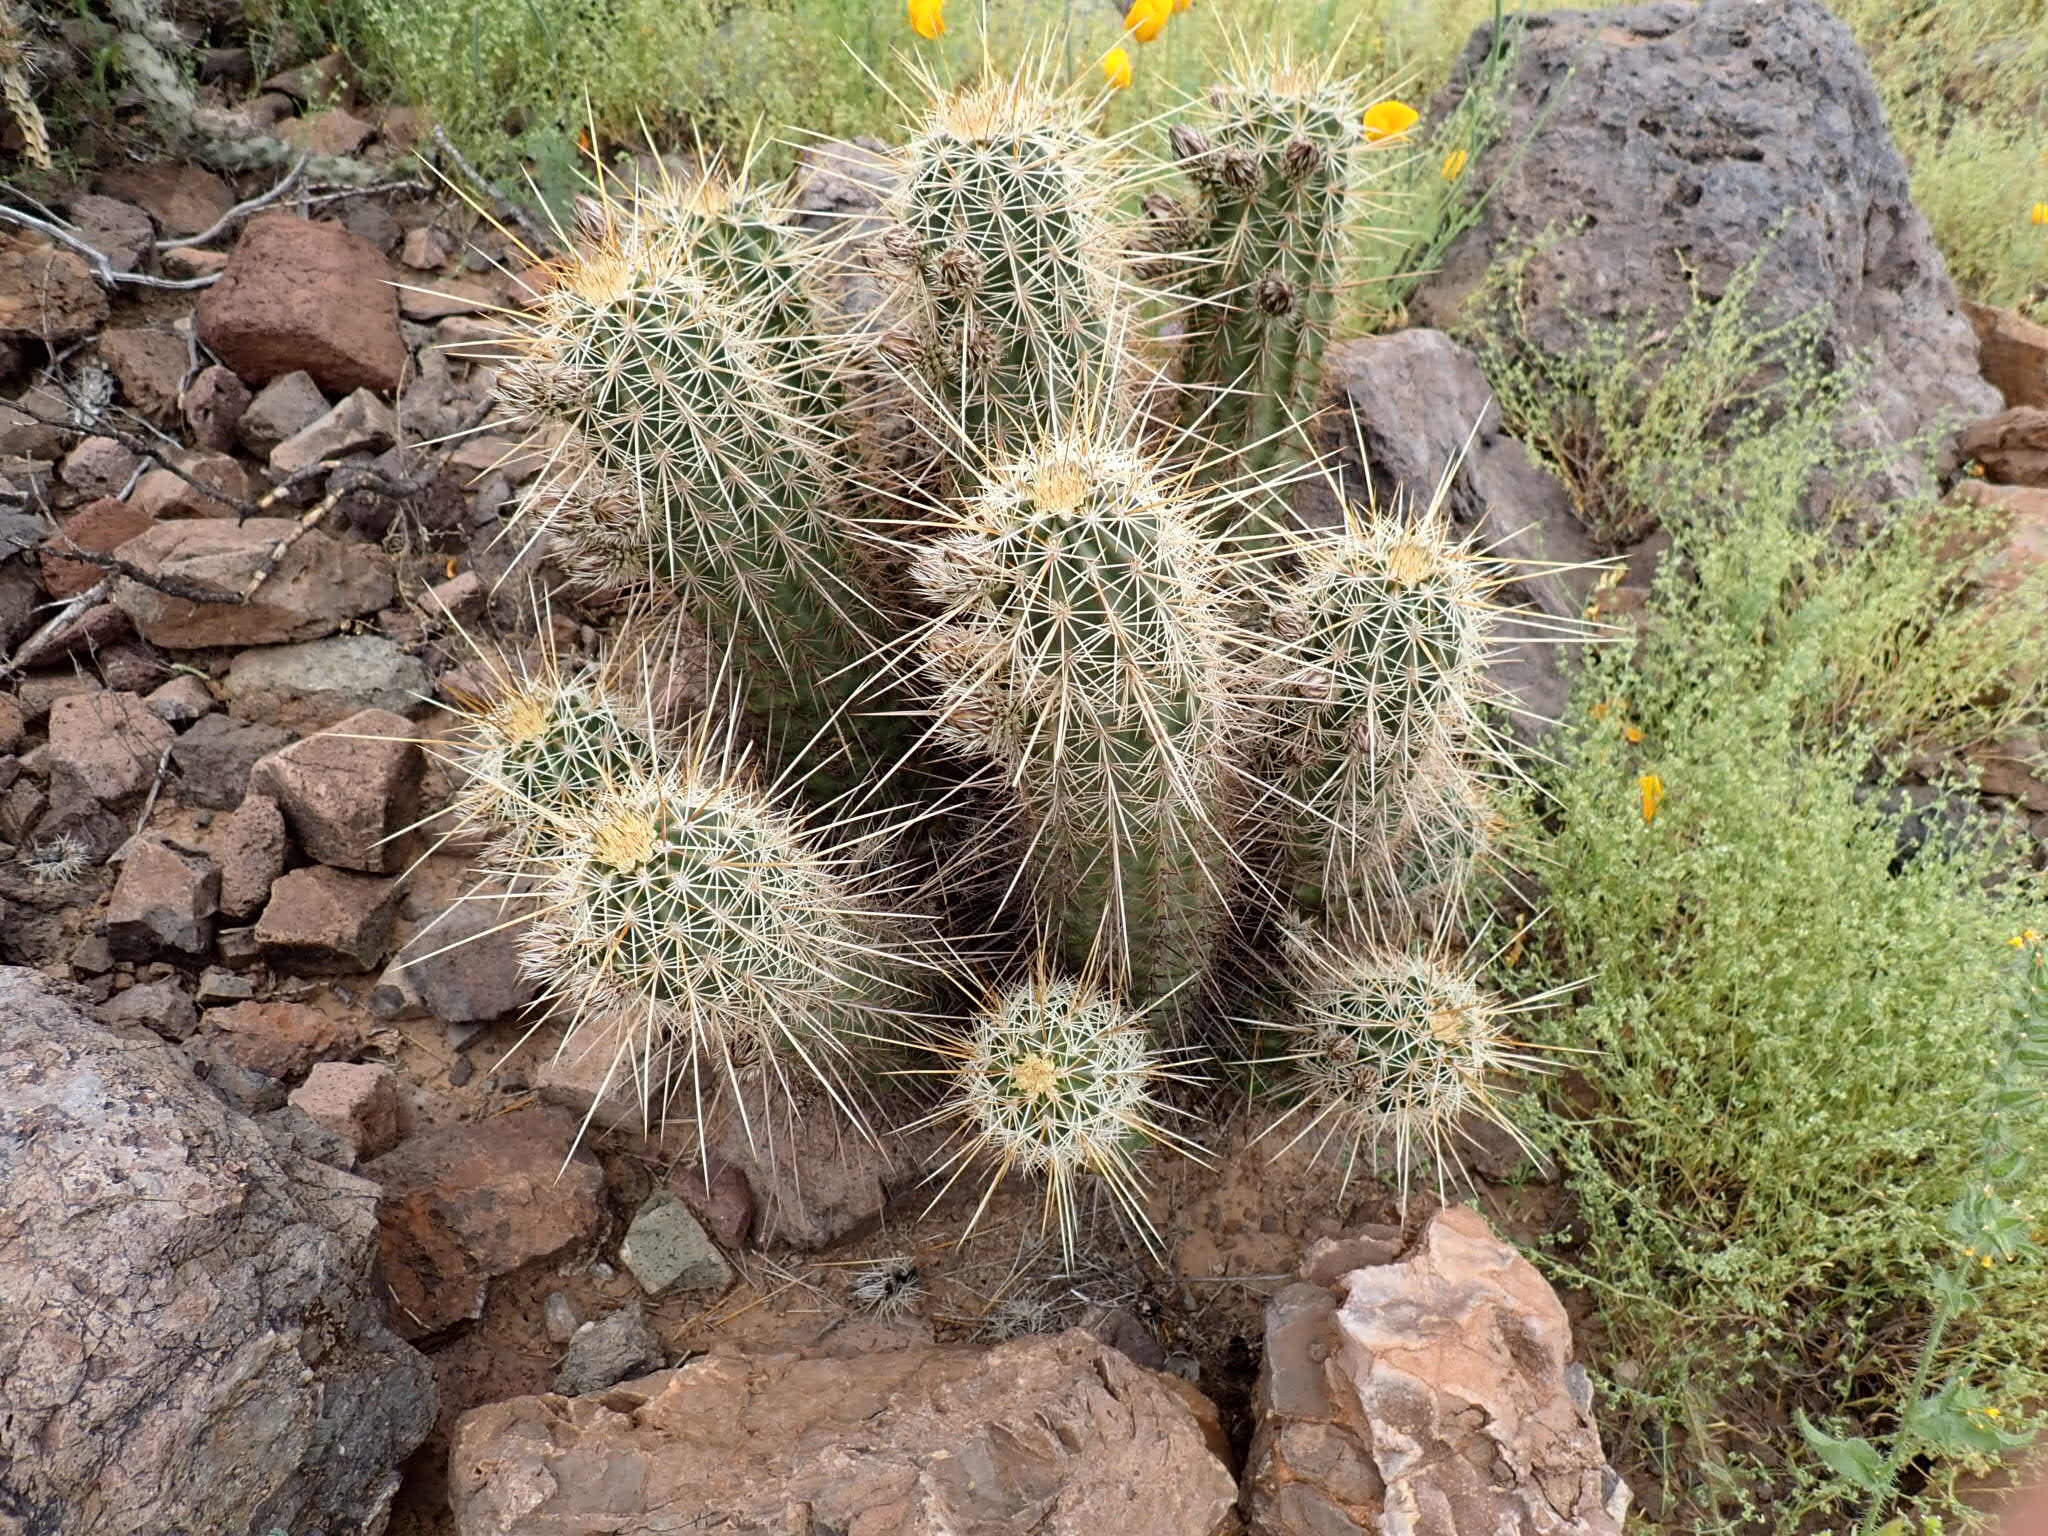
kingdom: Plantae
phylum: Tracheophyta
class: Magnoliopsida
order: Caryophyllales
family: Cactaceae
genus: Echinocereus
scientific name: Echinocereus fasciculatus
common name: Bundle hedgehog
